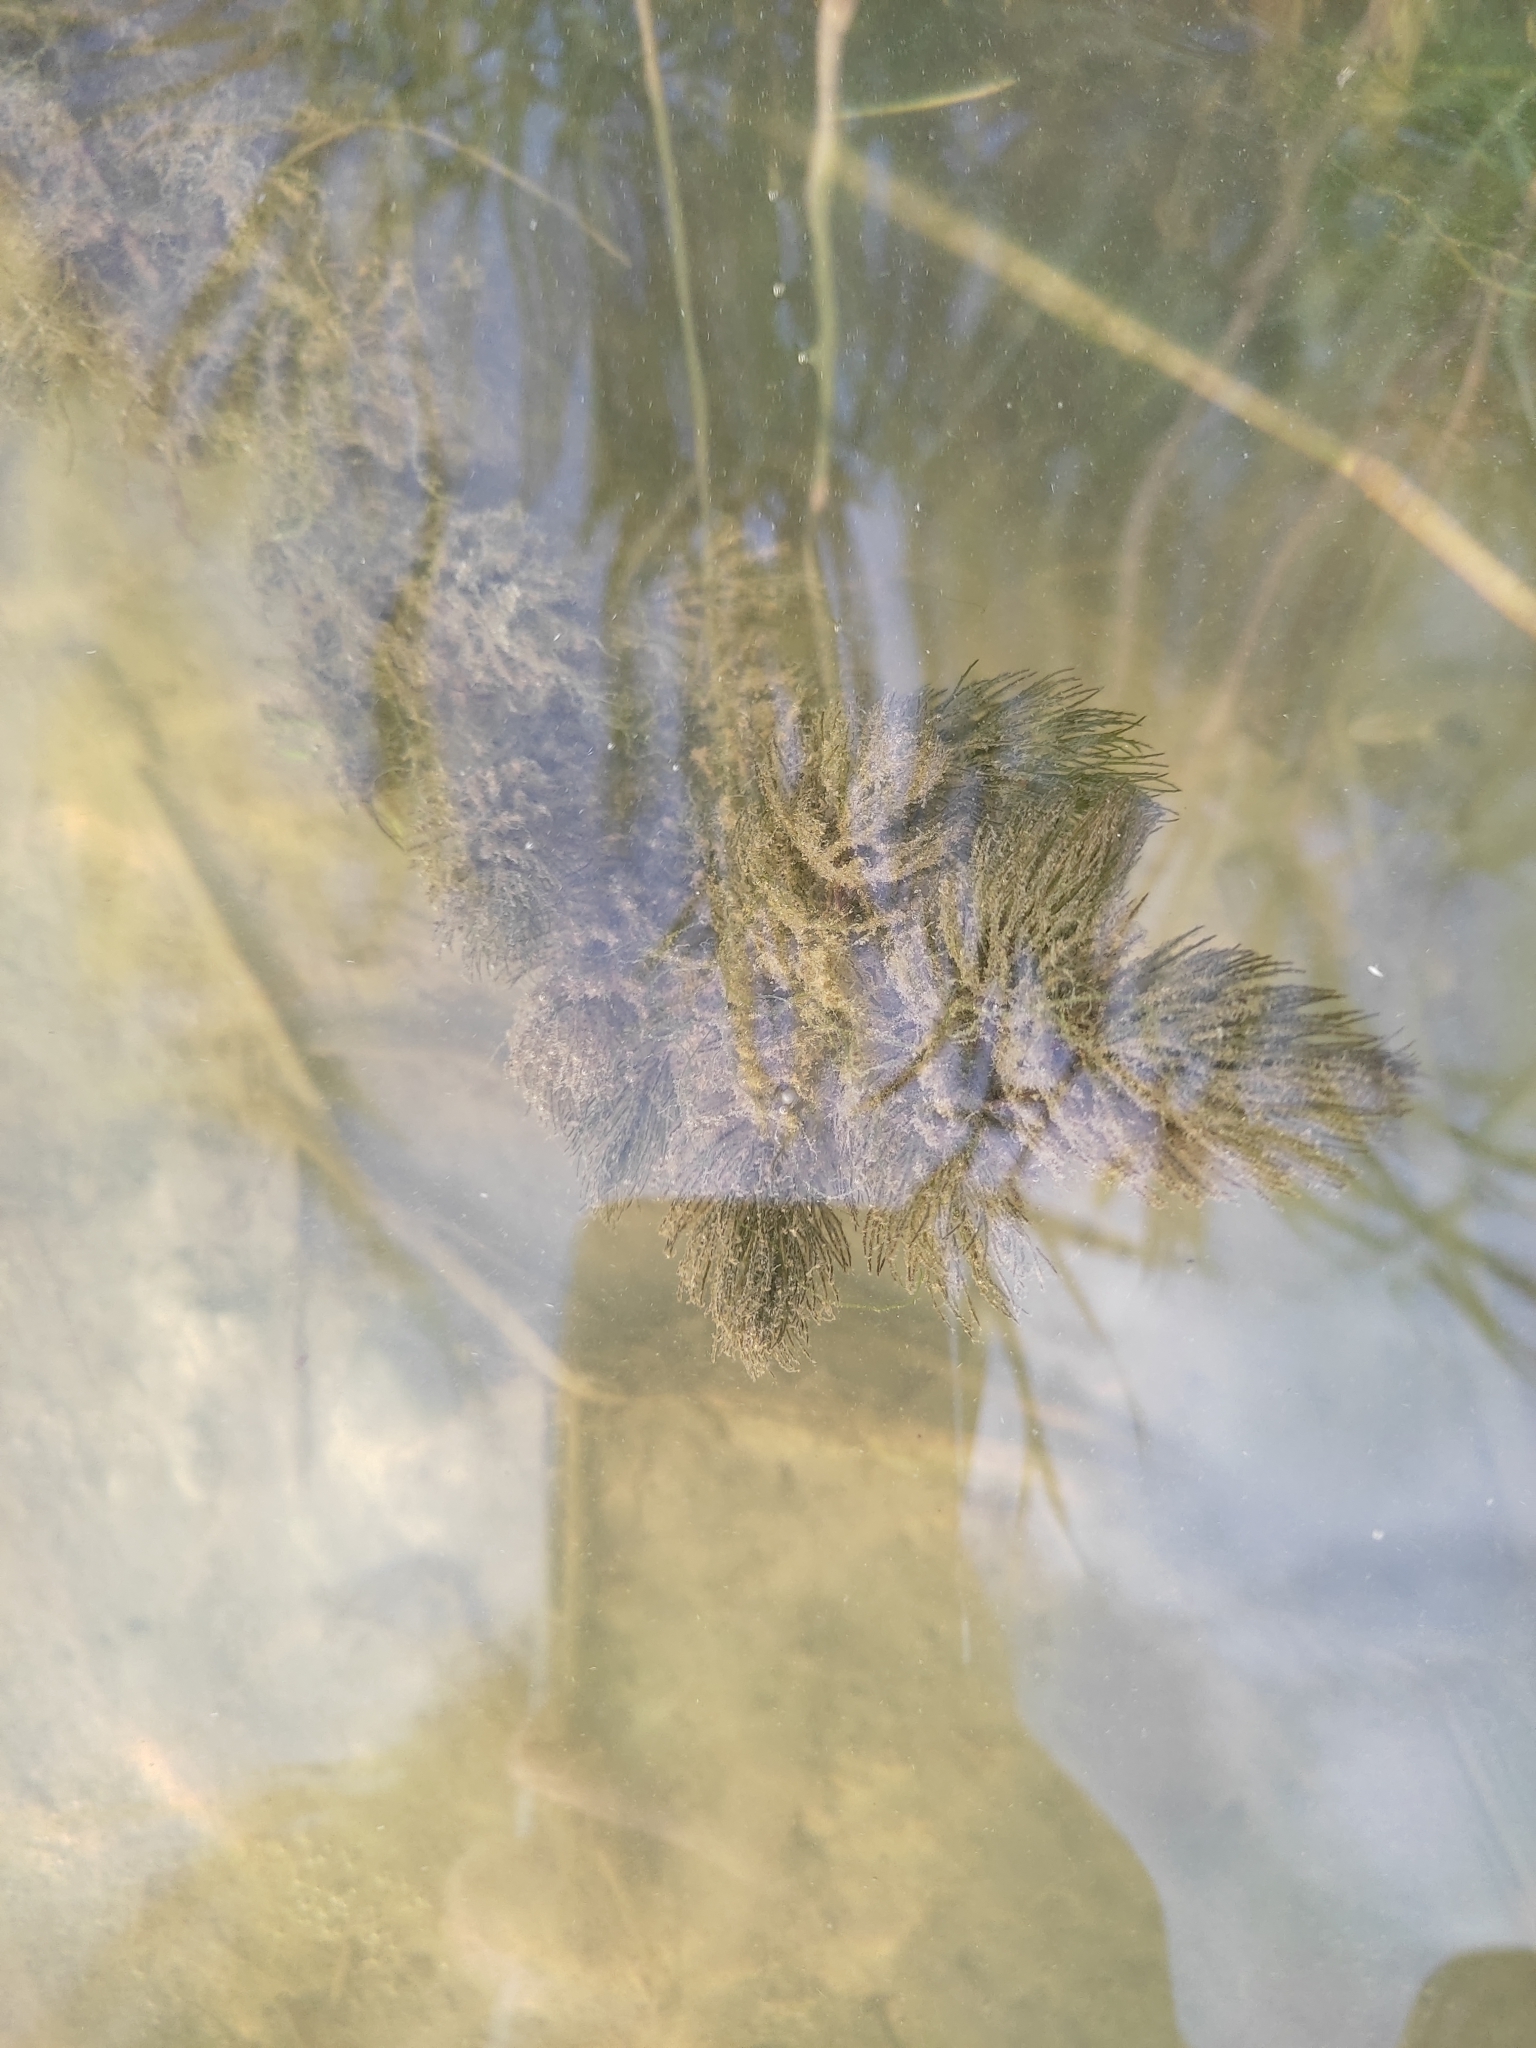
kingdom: Plantae
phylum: Tracheophyta
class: Magnoliopsida
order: Ceratophyllales
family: Ceratophyllaceae
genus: Ceratophyllum
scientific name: Ceratophyllum demersum
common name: Rigid hornwort
